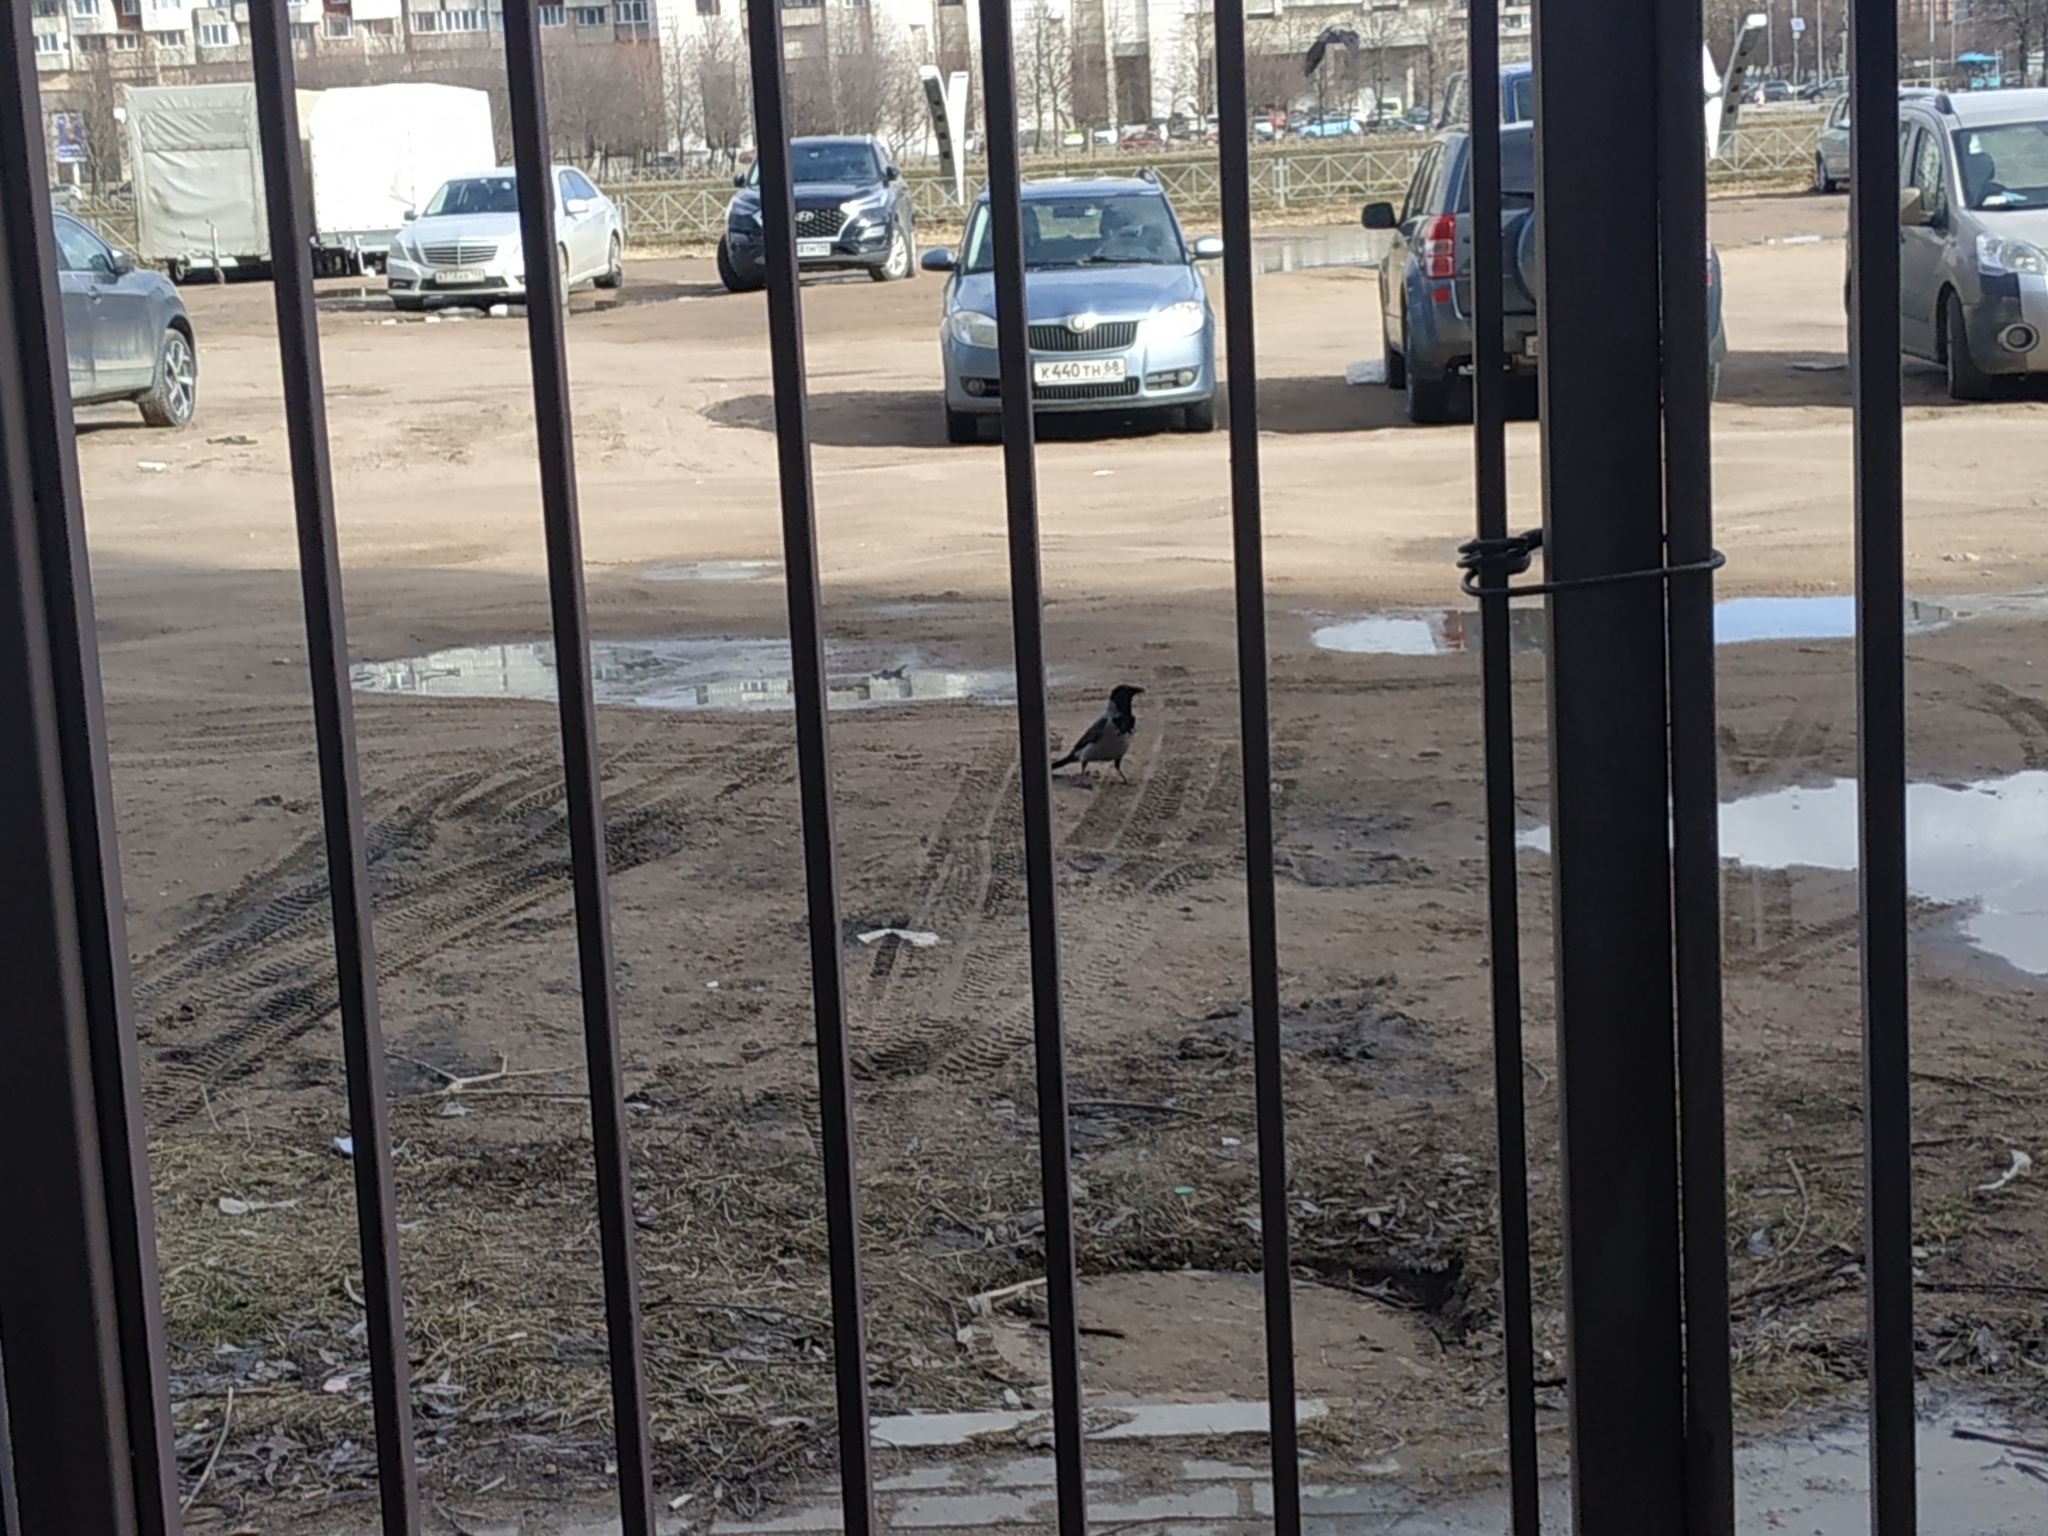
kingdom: Animalia
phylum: Chordata
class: Aves
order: Passeriformes
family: Corvidae
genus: Corvus
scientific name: Corvus cornix
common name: Hooded crow
